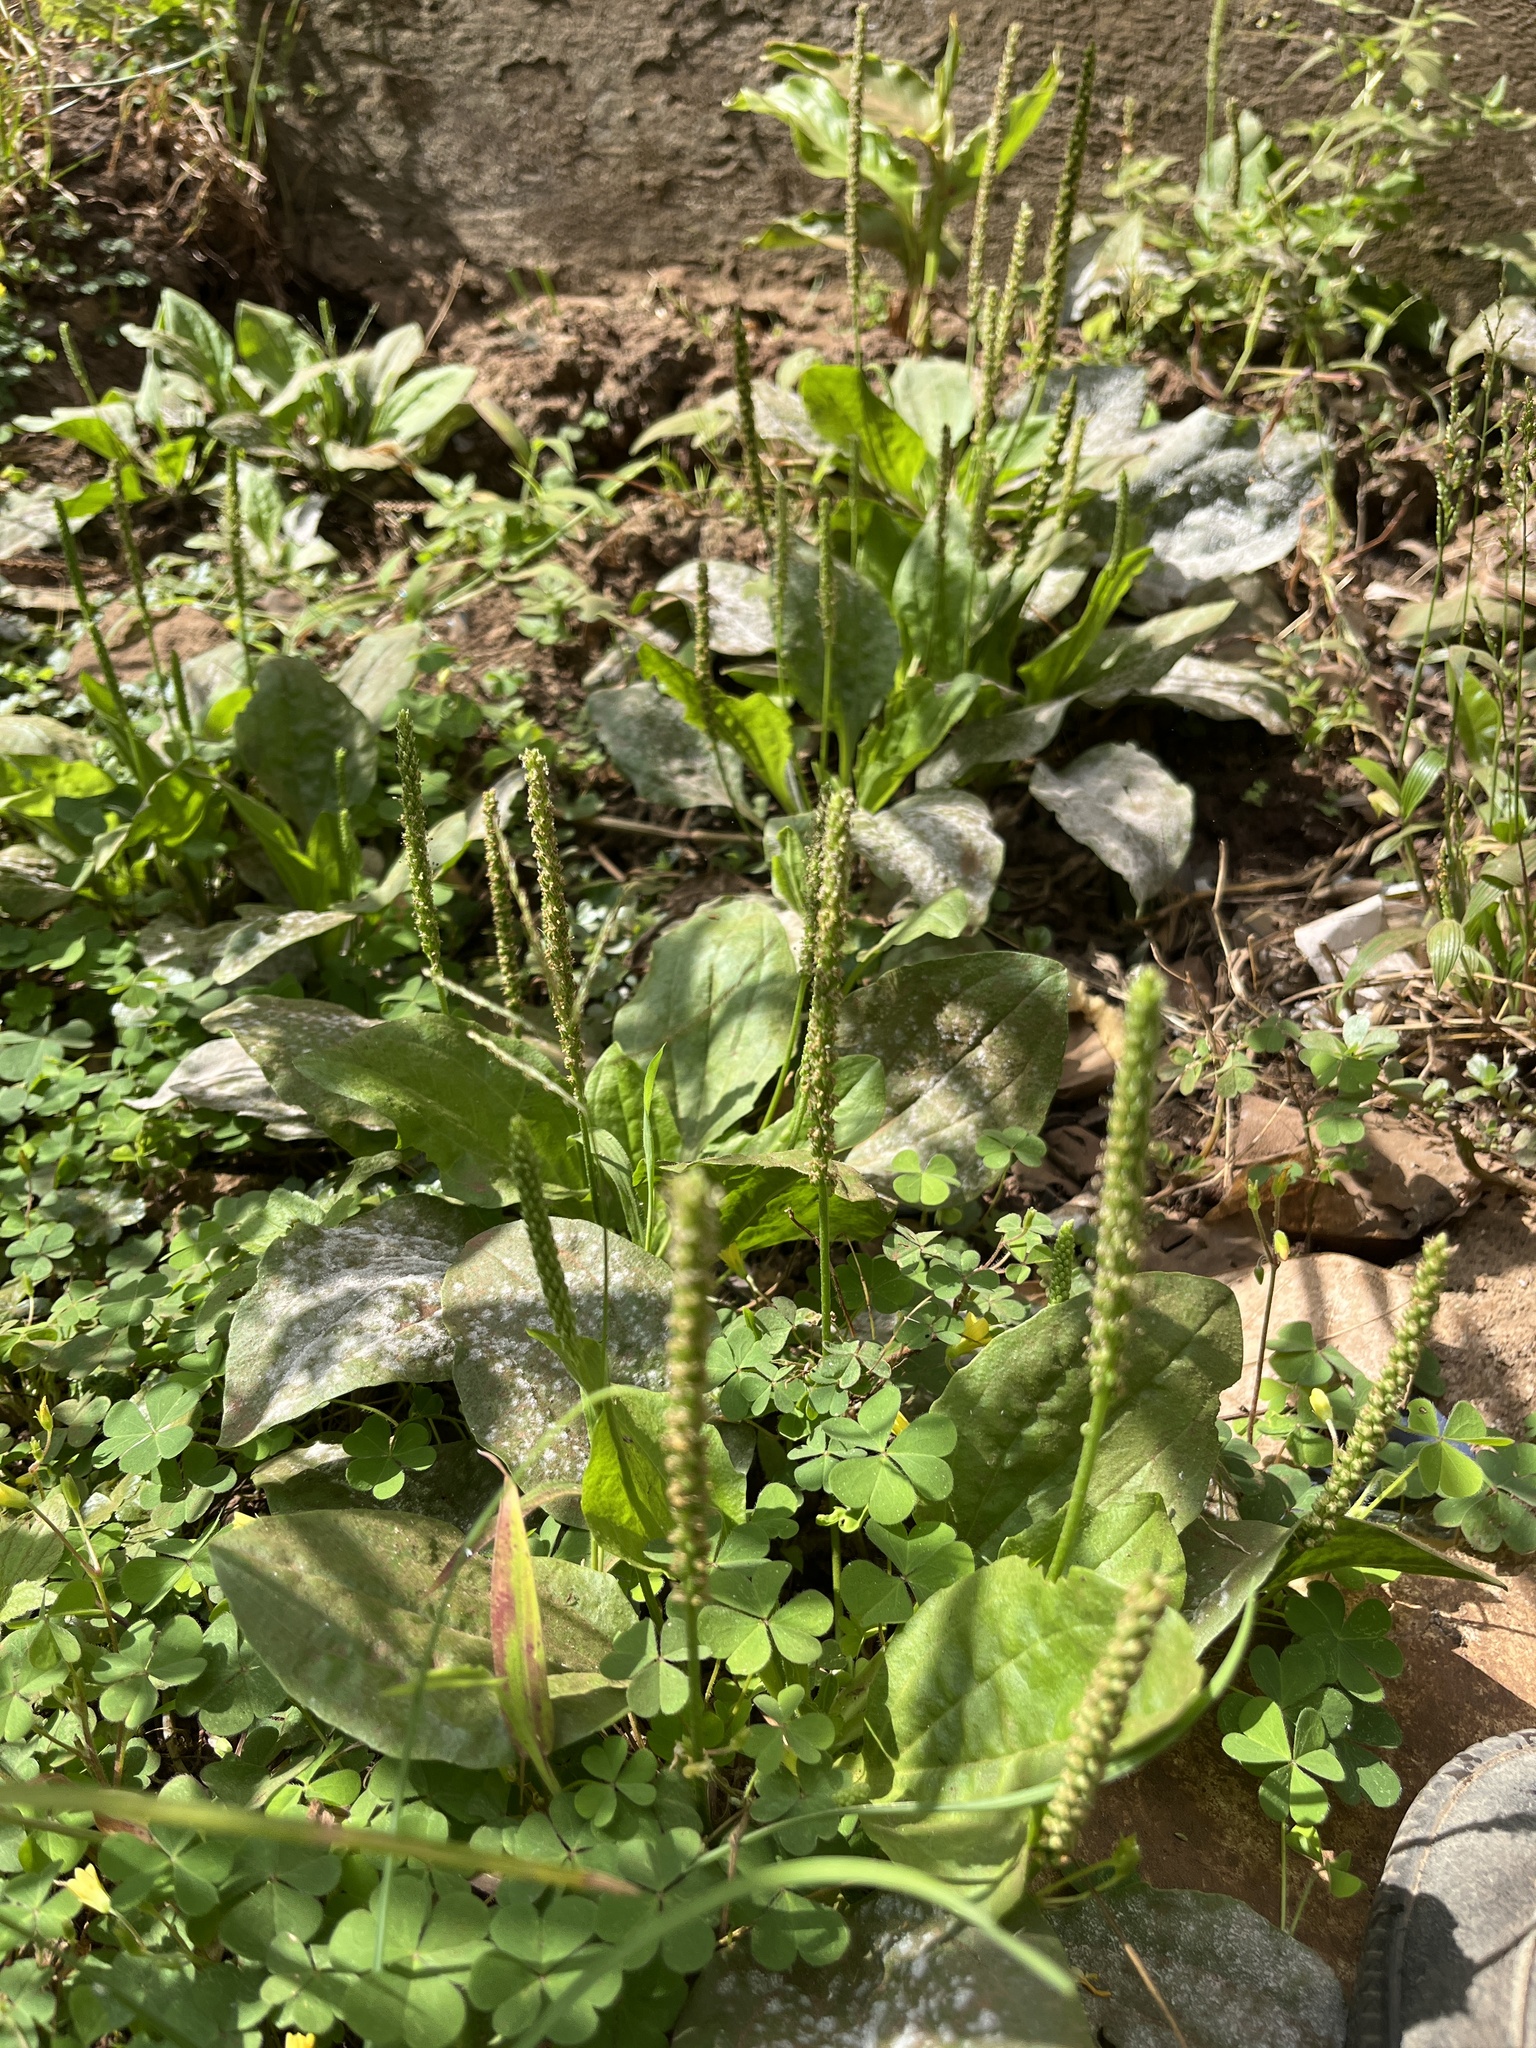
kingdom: Plantae
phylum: Tracheophyta
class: Magnoliopsida
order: Lamiales
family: Plantaginaceae
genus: Plantago
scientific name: Plantago major
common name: Common plantain
